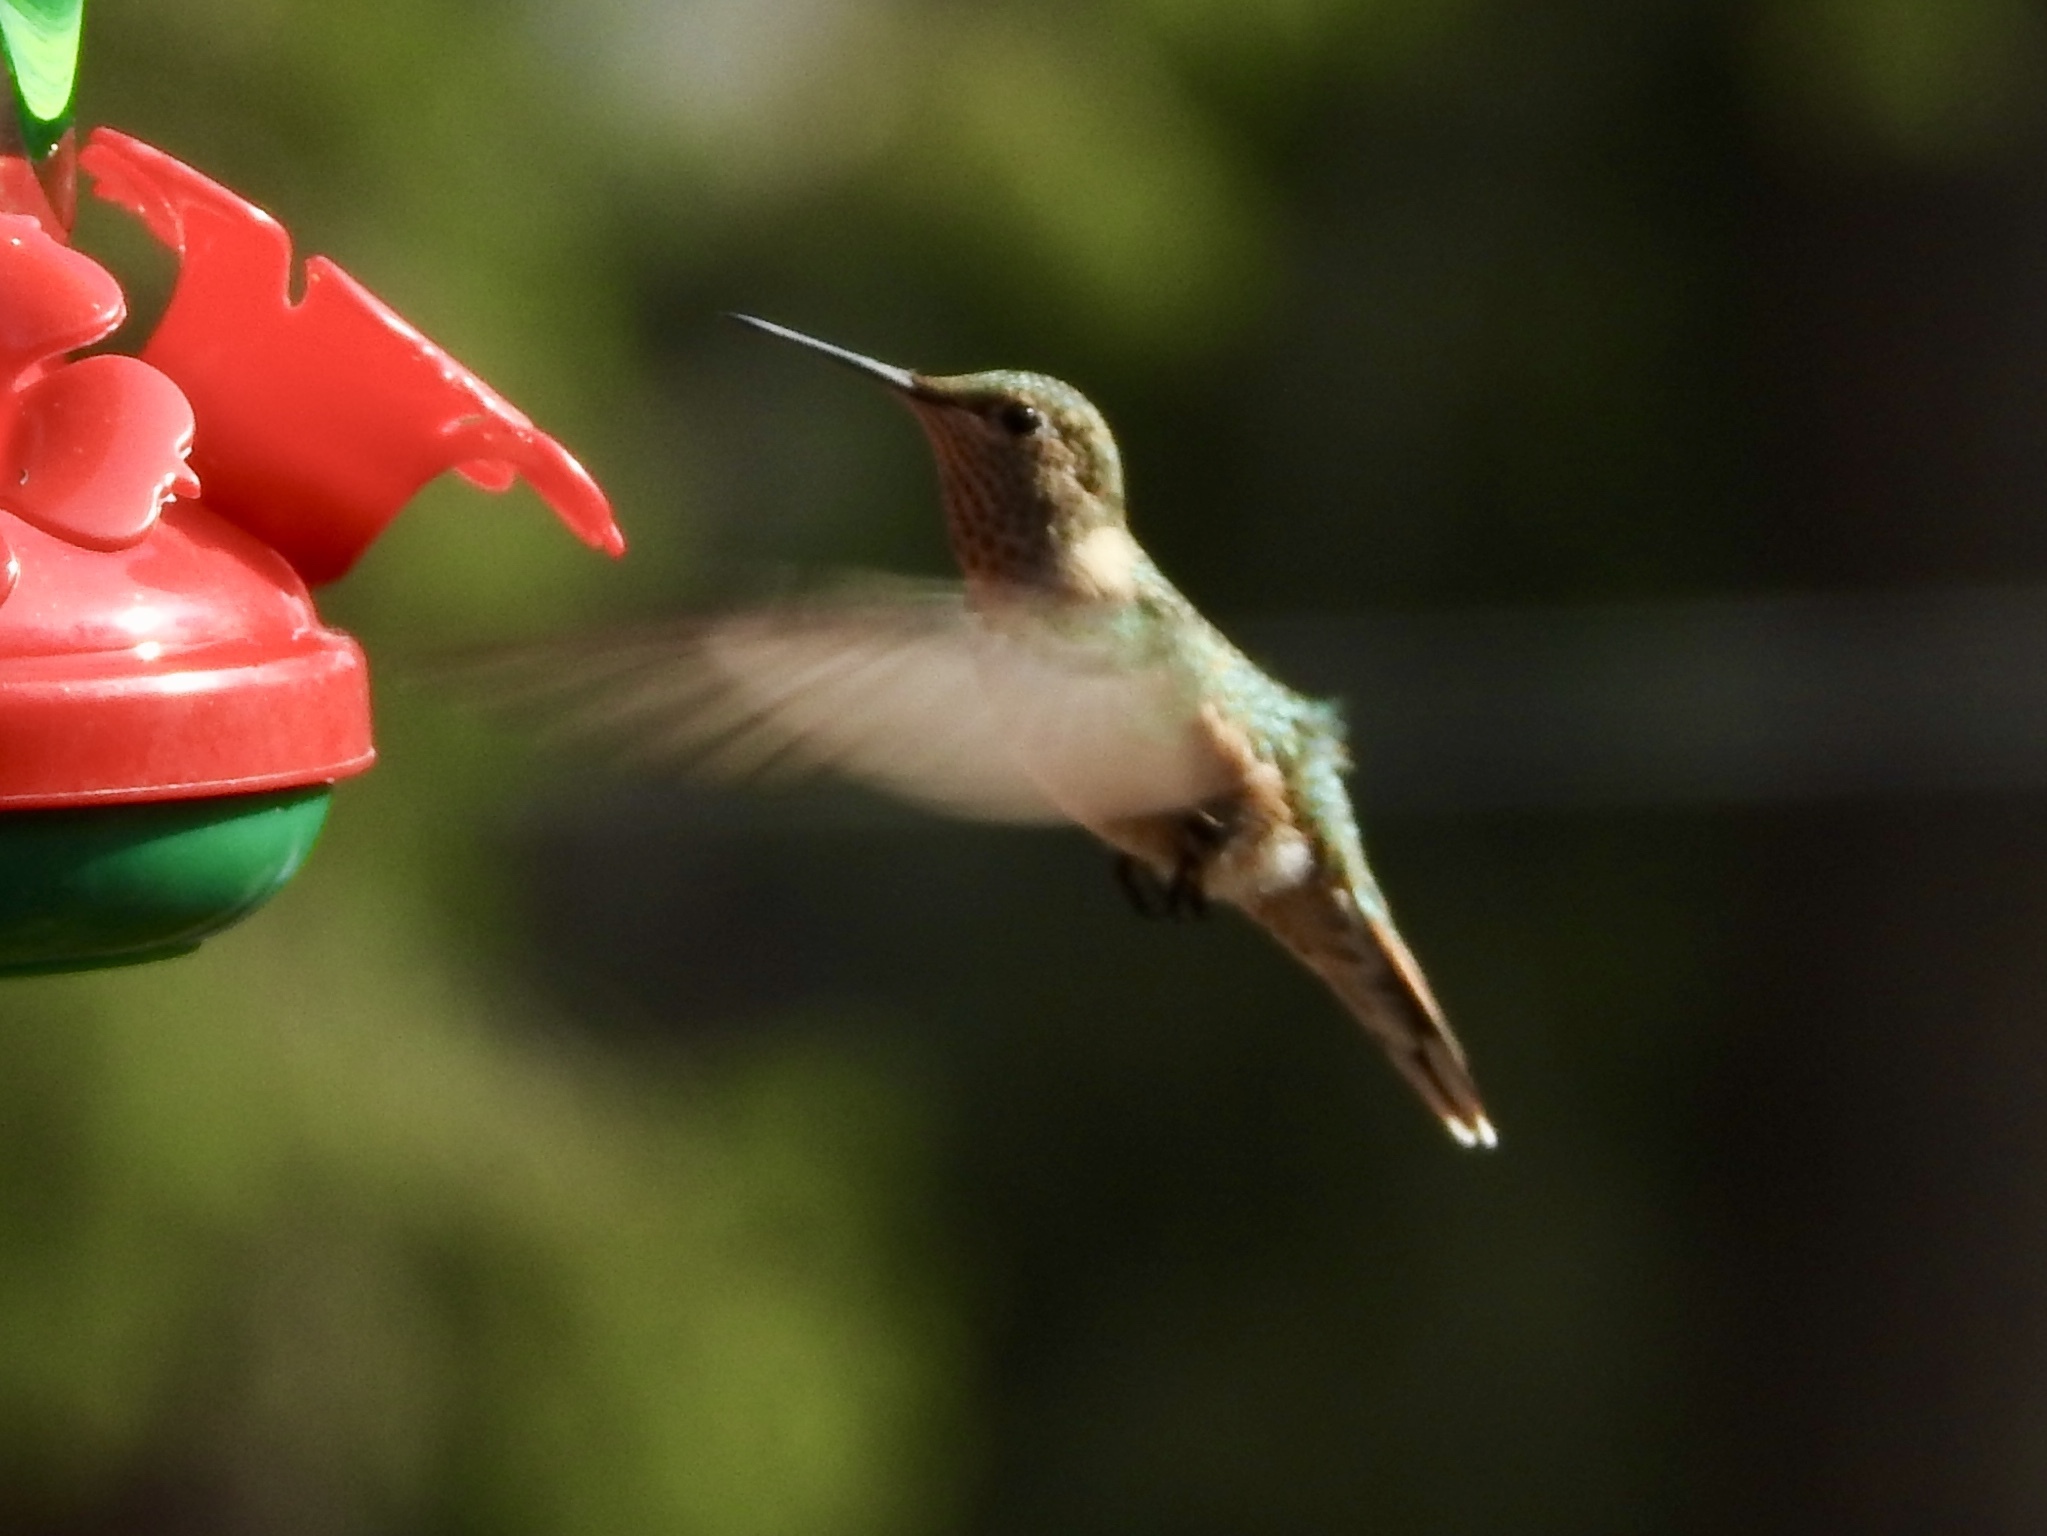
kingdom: Animalia
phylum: Chordata
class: Aves
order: Apodiformes
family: Trochilidae
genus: Selasphorus
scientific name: Selasphorus platycercus
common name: Broad-tailed hummingbird
